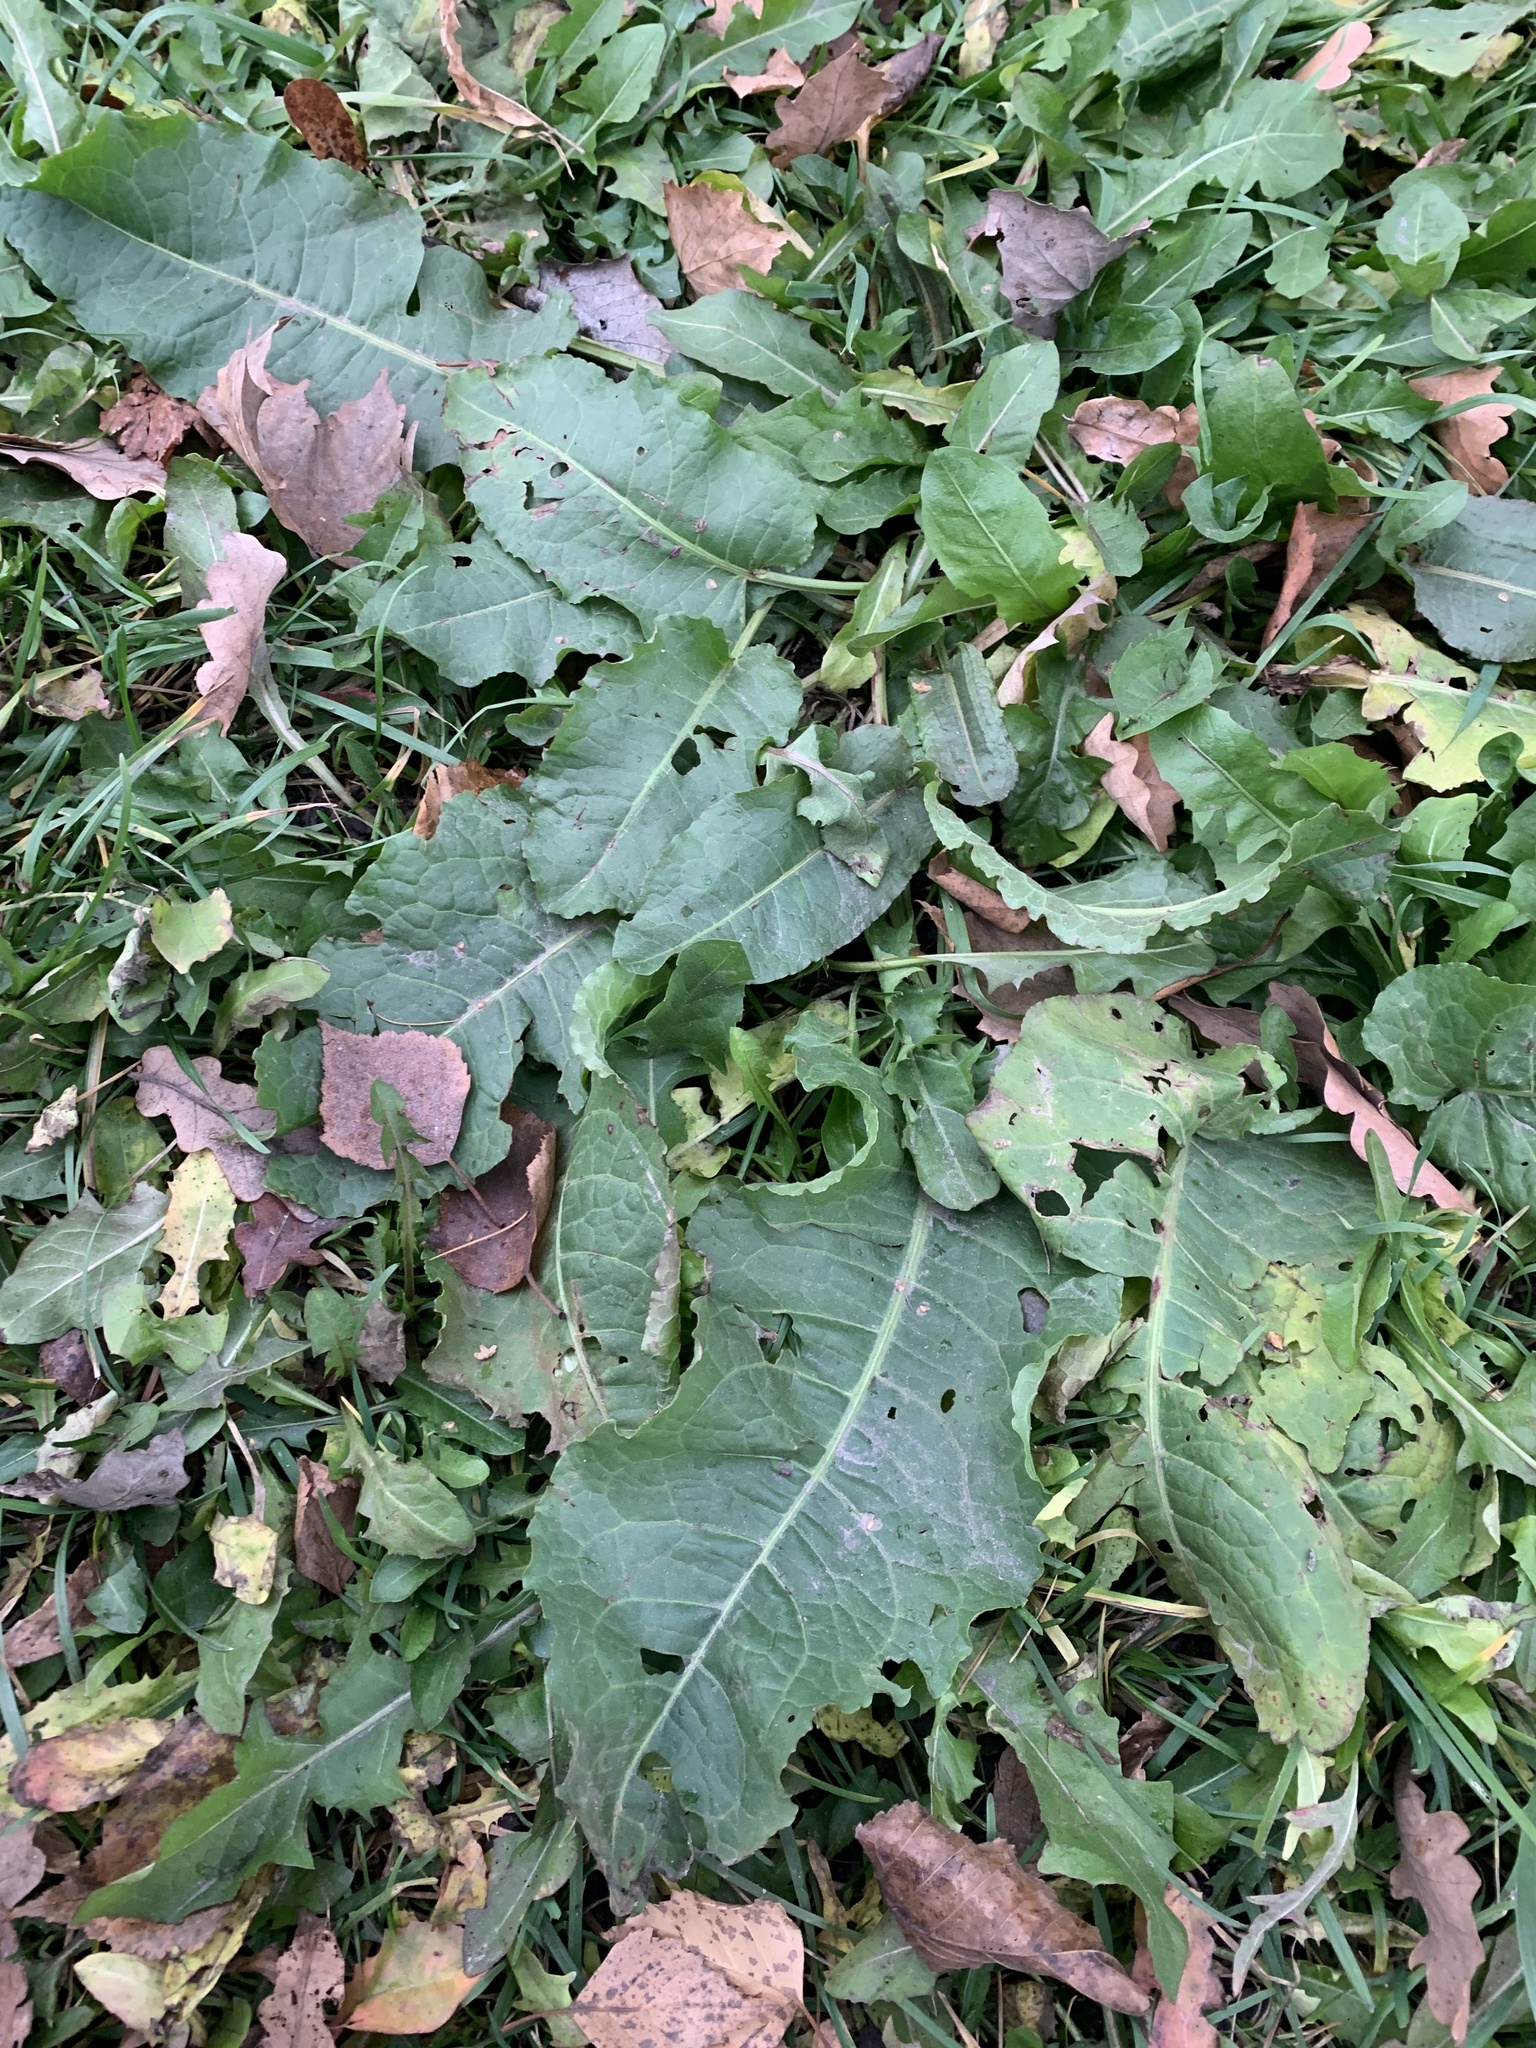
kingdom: Plantae
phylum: Tracheophyta
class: Magnoliopsida
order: Caryophyllales
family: Polygonaceae
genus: Rumex
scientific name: Rumex confertus
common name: Russian dock
